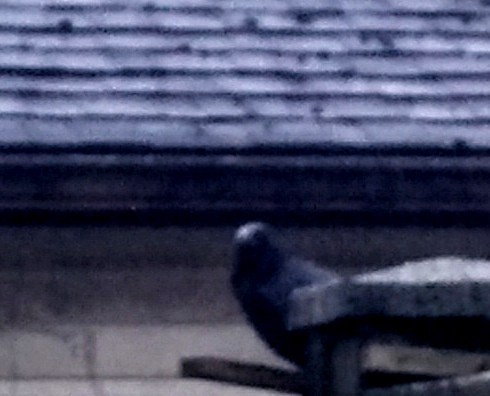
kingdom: Animalia
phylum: Chordata
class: Aves
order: Passeriformes
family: Corvidae
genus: Corvus
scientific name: Corvus brachyrhynchos
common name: American crow
